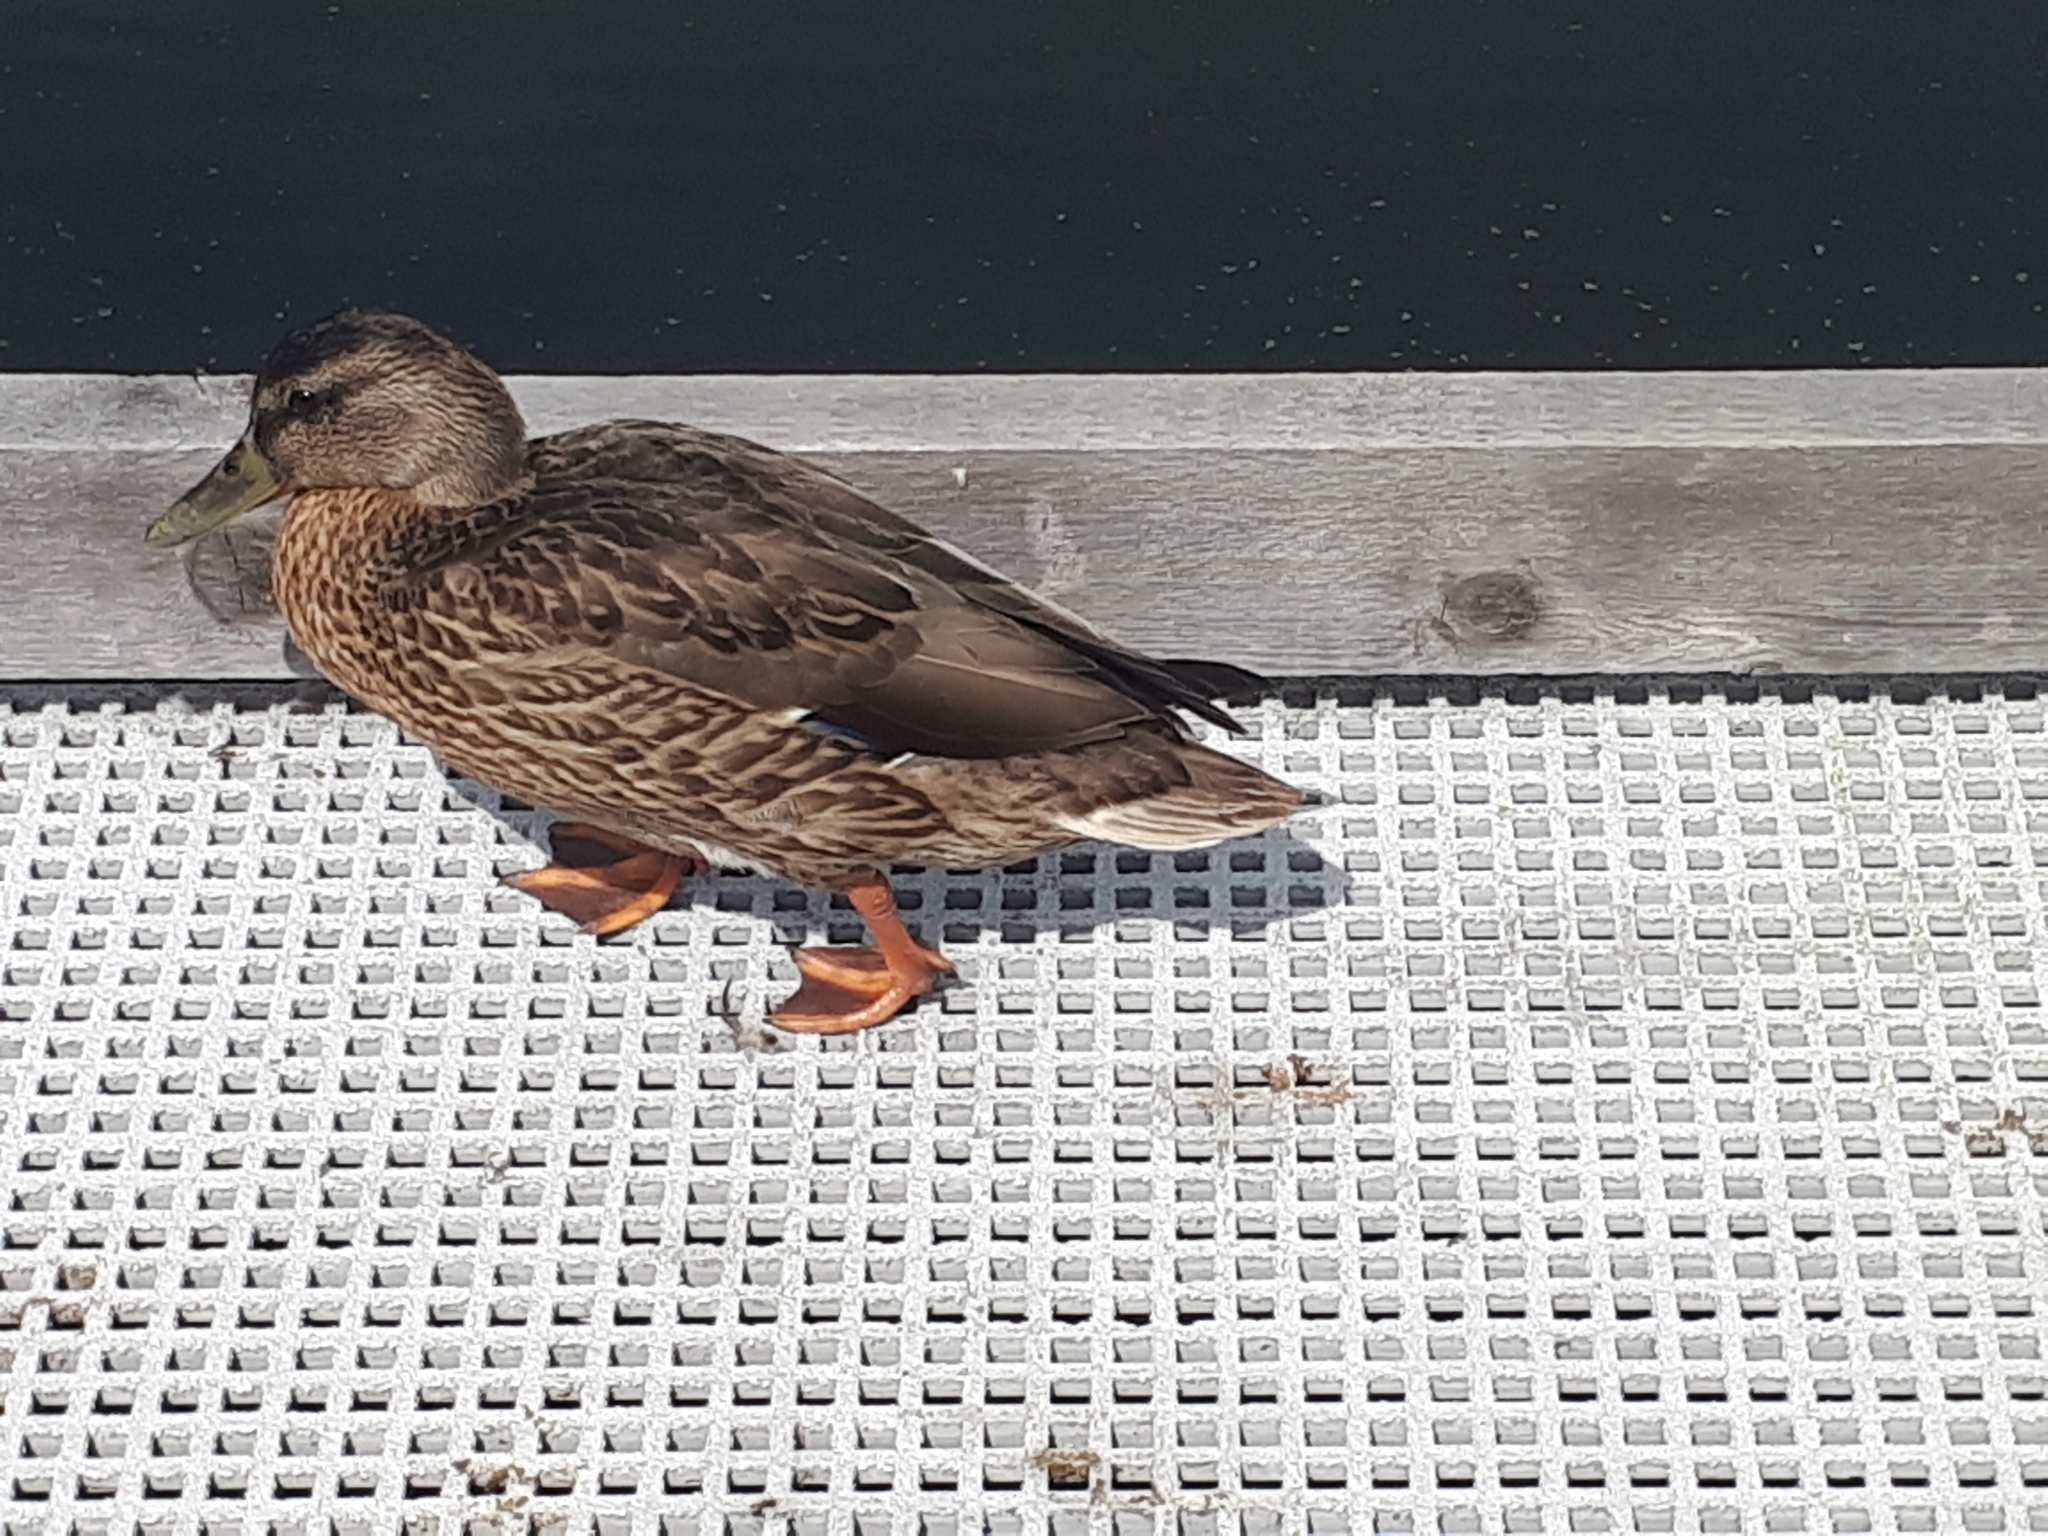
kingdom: Animalia
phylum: Chordata
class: Aves
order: Anseriformes
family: Anatidae
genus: Anas
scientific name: Anas platyrhynchos
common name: Mallard
